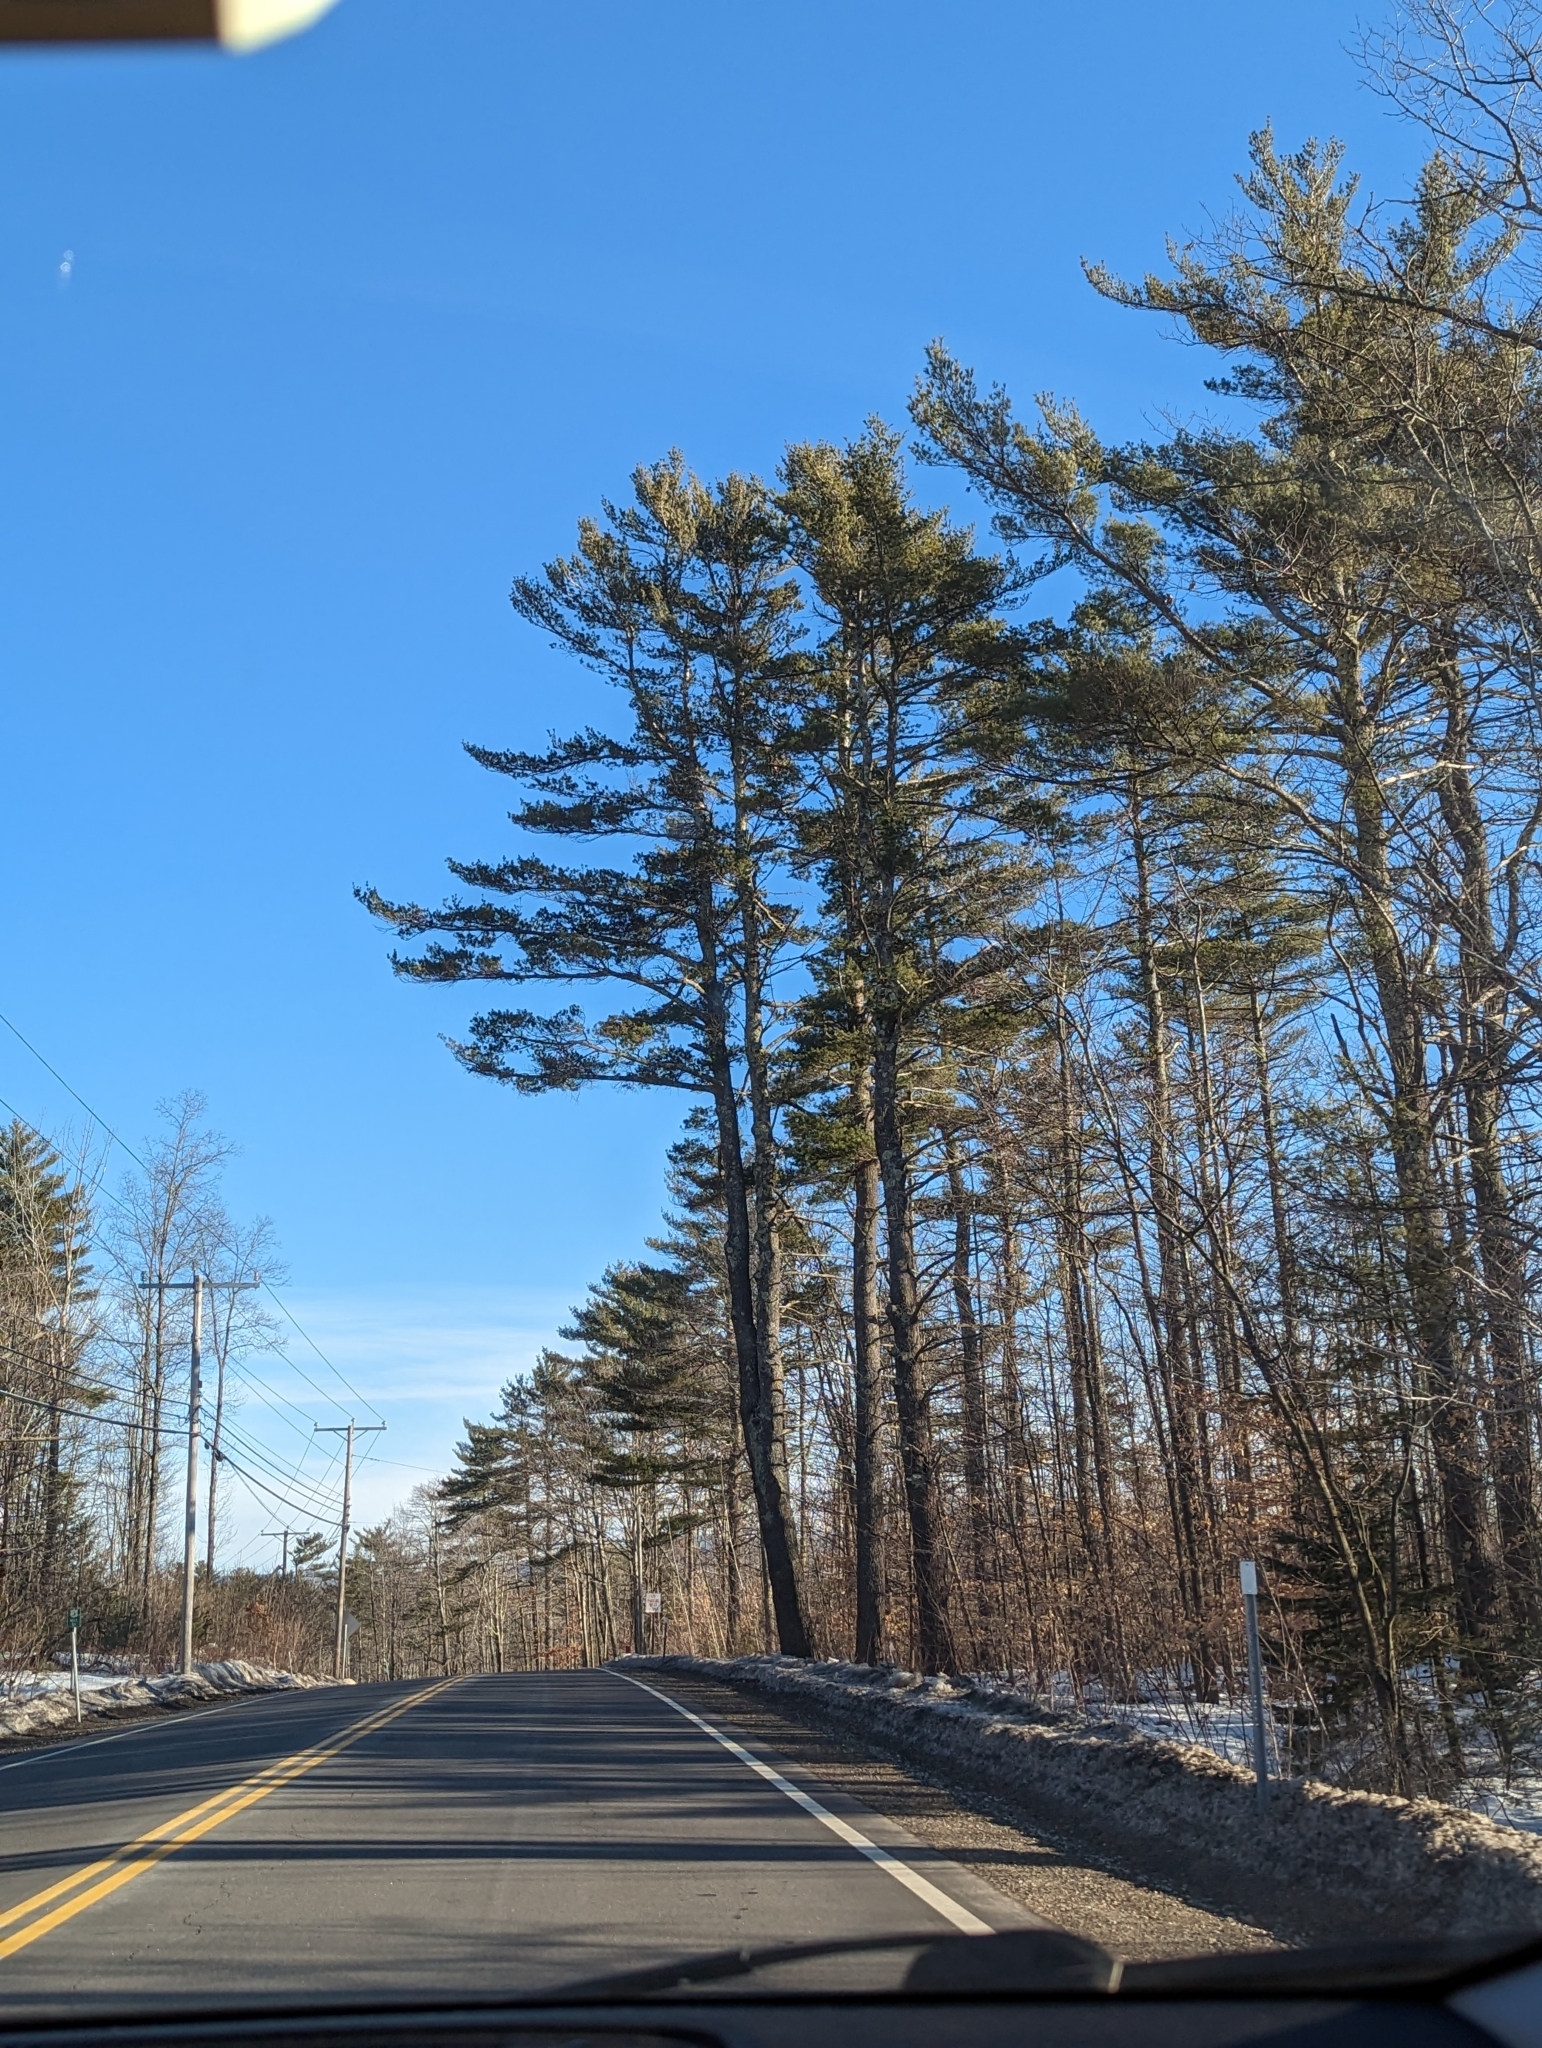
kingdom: Plantae
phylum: Tracheophyta
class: Pinopsida
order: Pinales
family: Pinaceae
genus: Pinus
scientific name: Pinus strobus
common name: Weymouth pine
